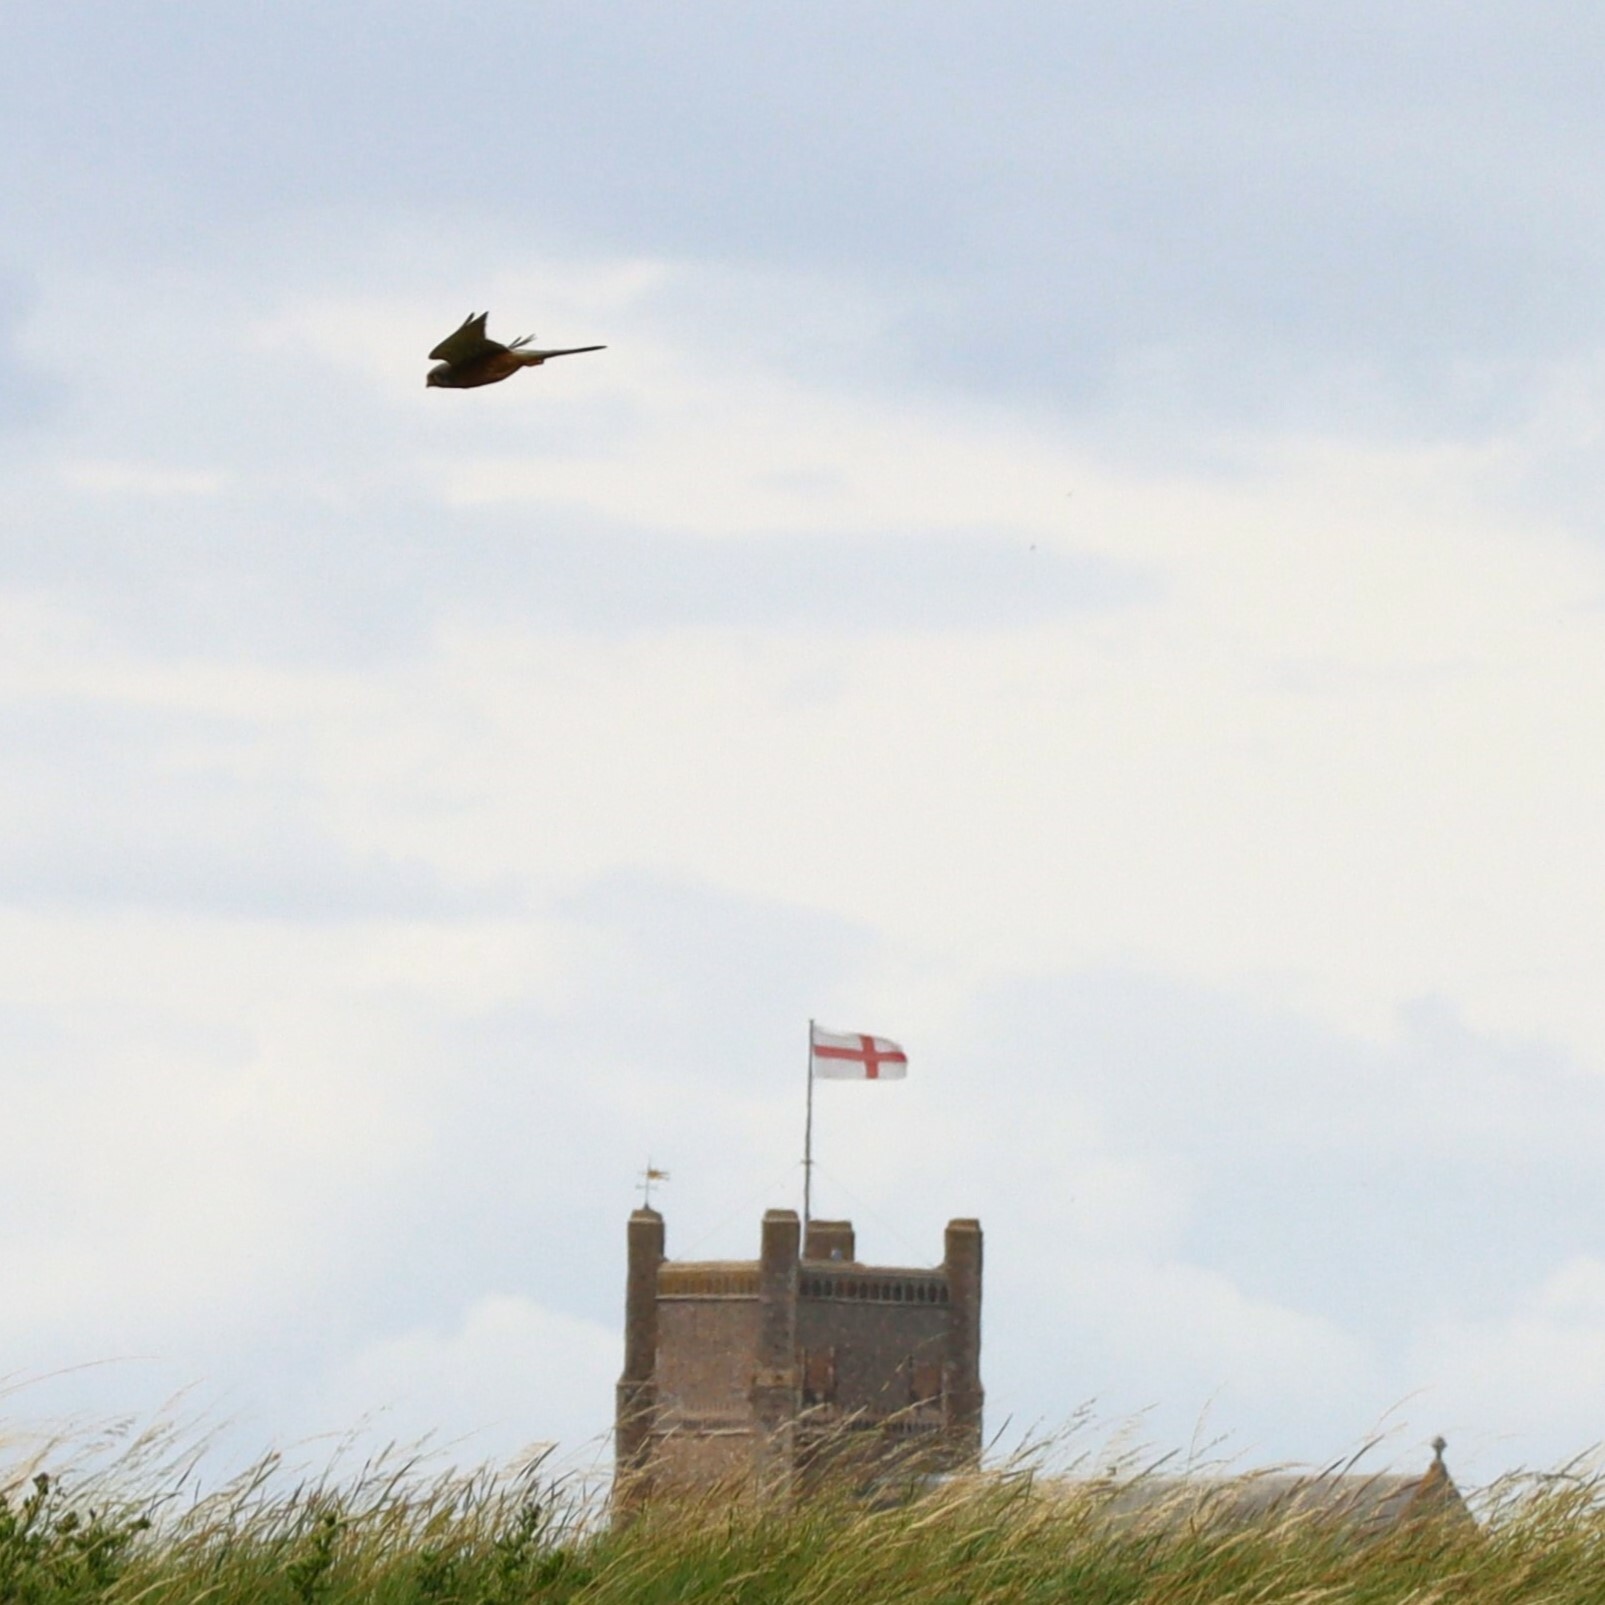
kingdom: Animalia
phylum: Chordata
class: Aves
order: Falconiformes
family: Falconidae
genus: Falco
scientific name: Falco tinnunculus
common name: Common kestrel
